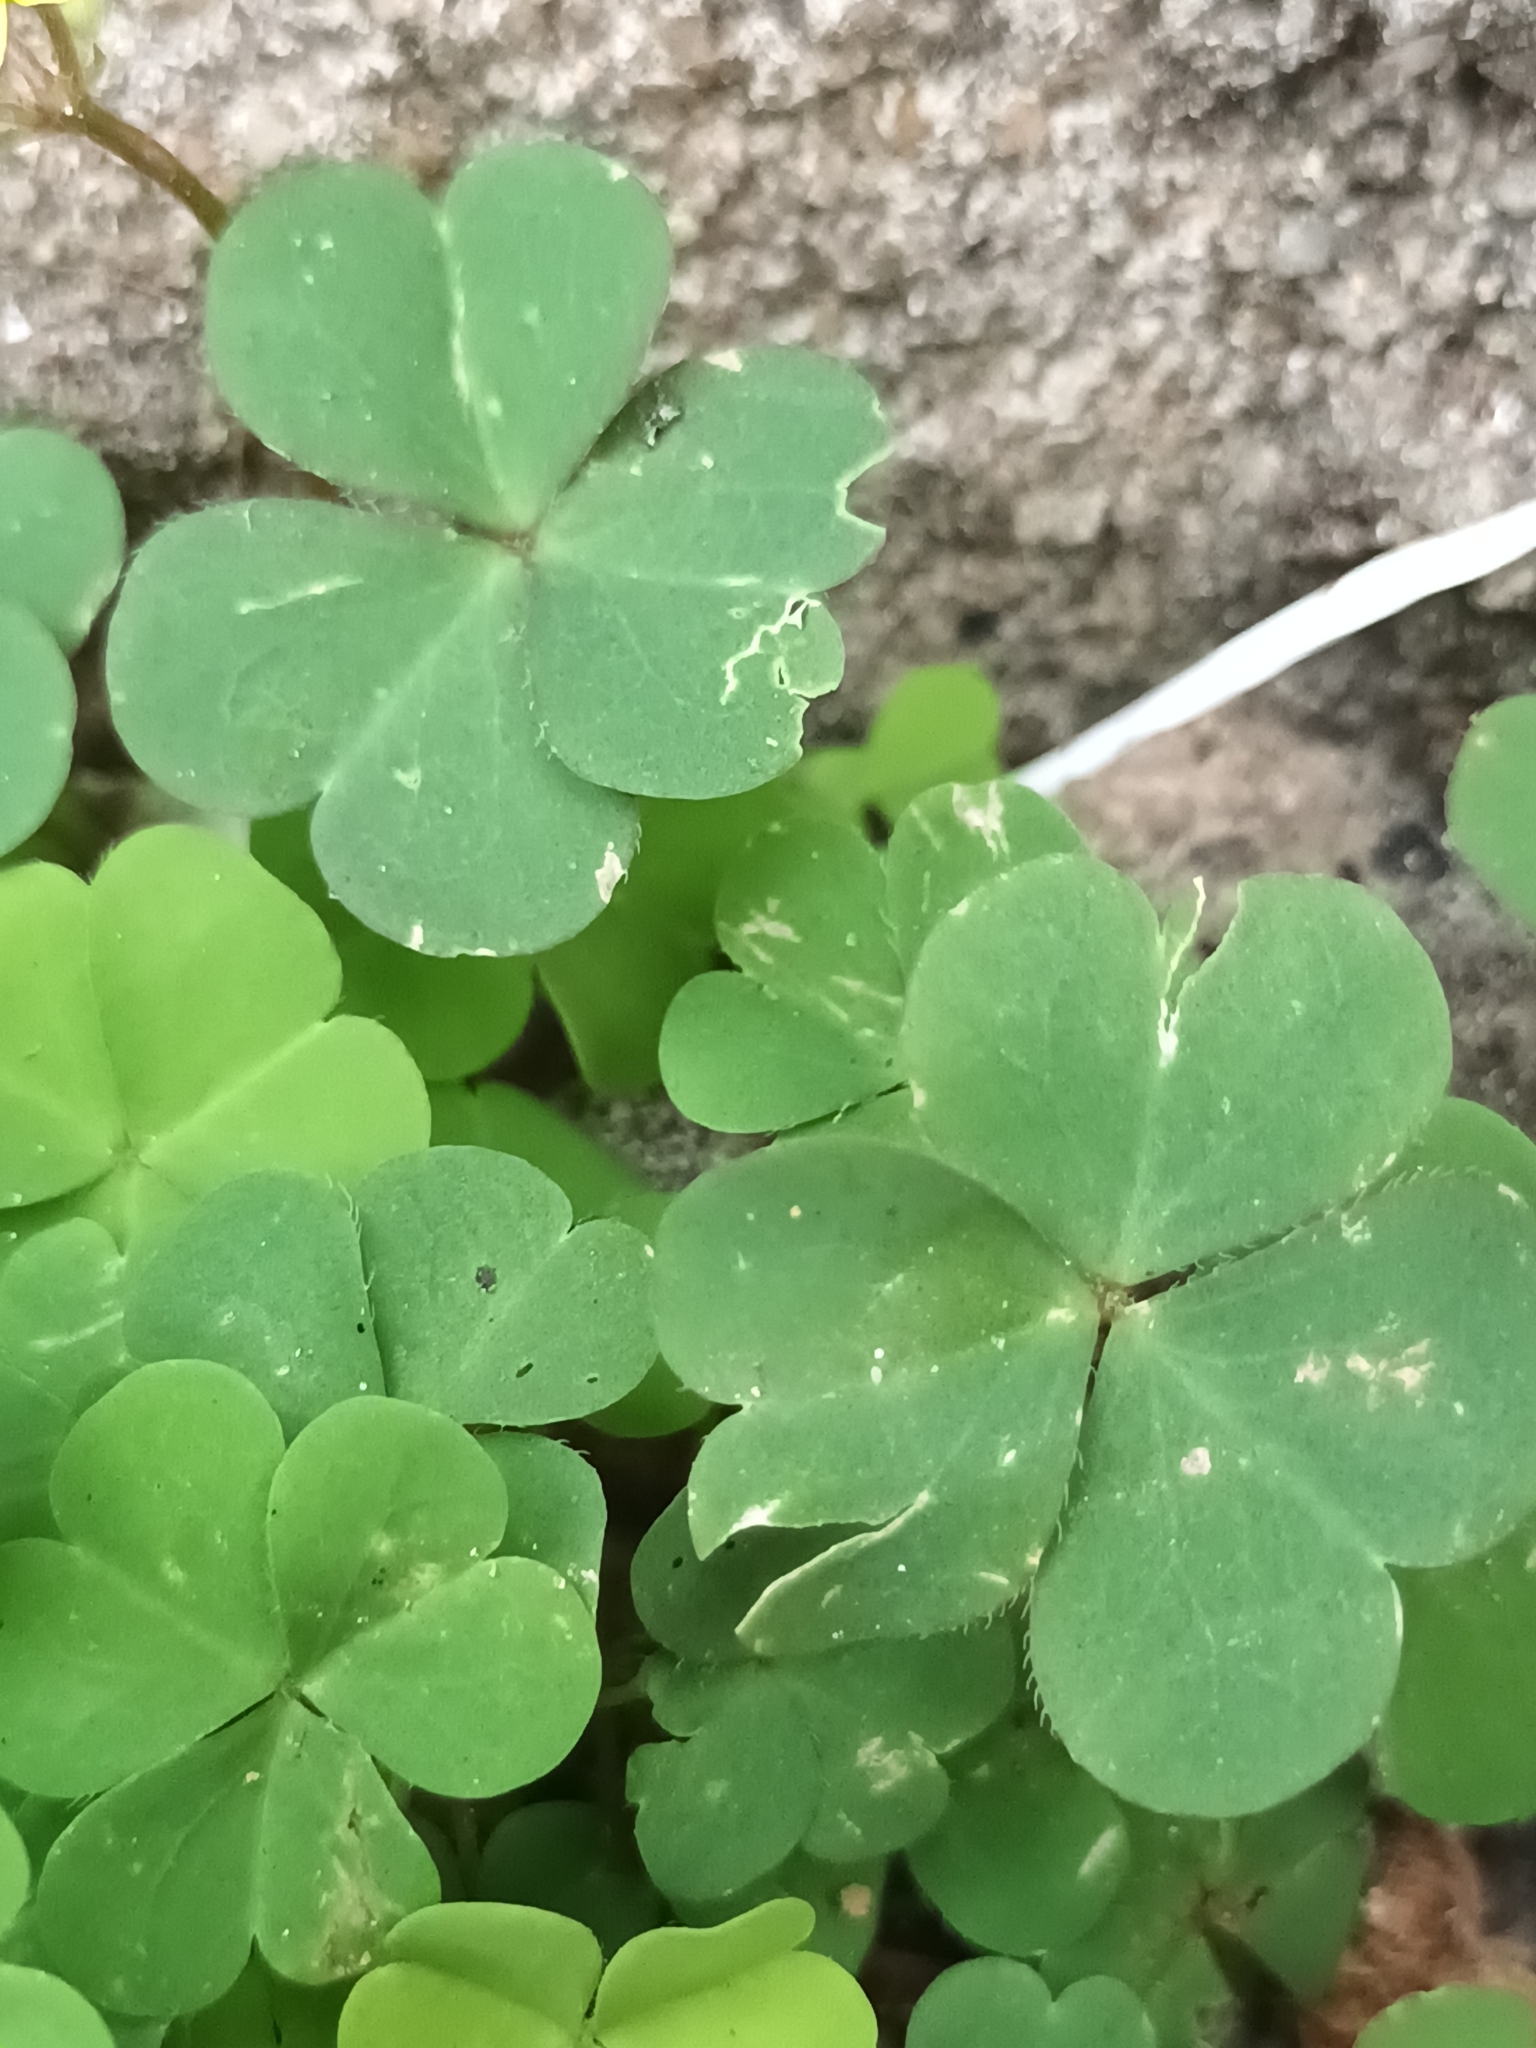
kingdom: Plantae
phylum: Tracheophyta
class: Magnoliopsida
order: Oxalidales
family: Oxalidaceae
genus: Oxalis
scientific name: Oxalis corniculata
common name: Procumbent yellow-sorrel
